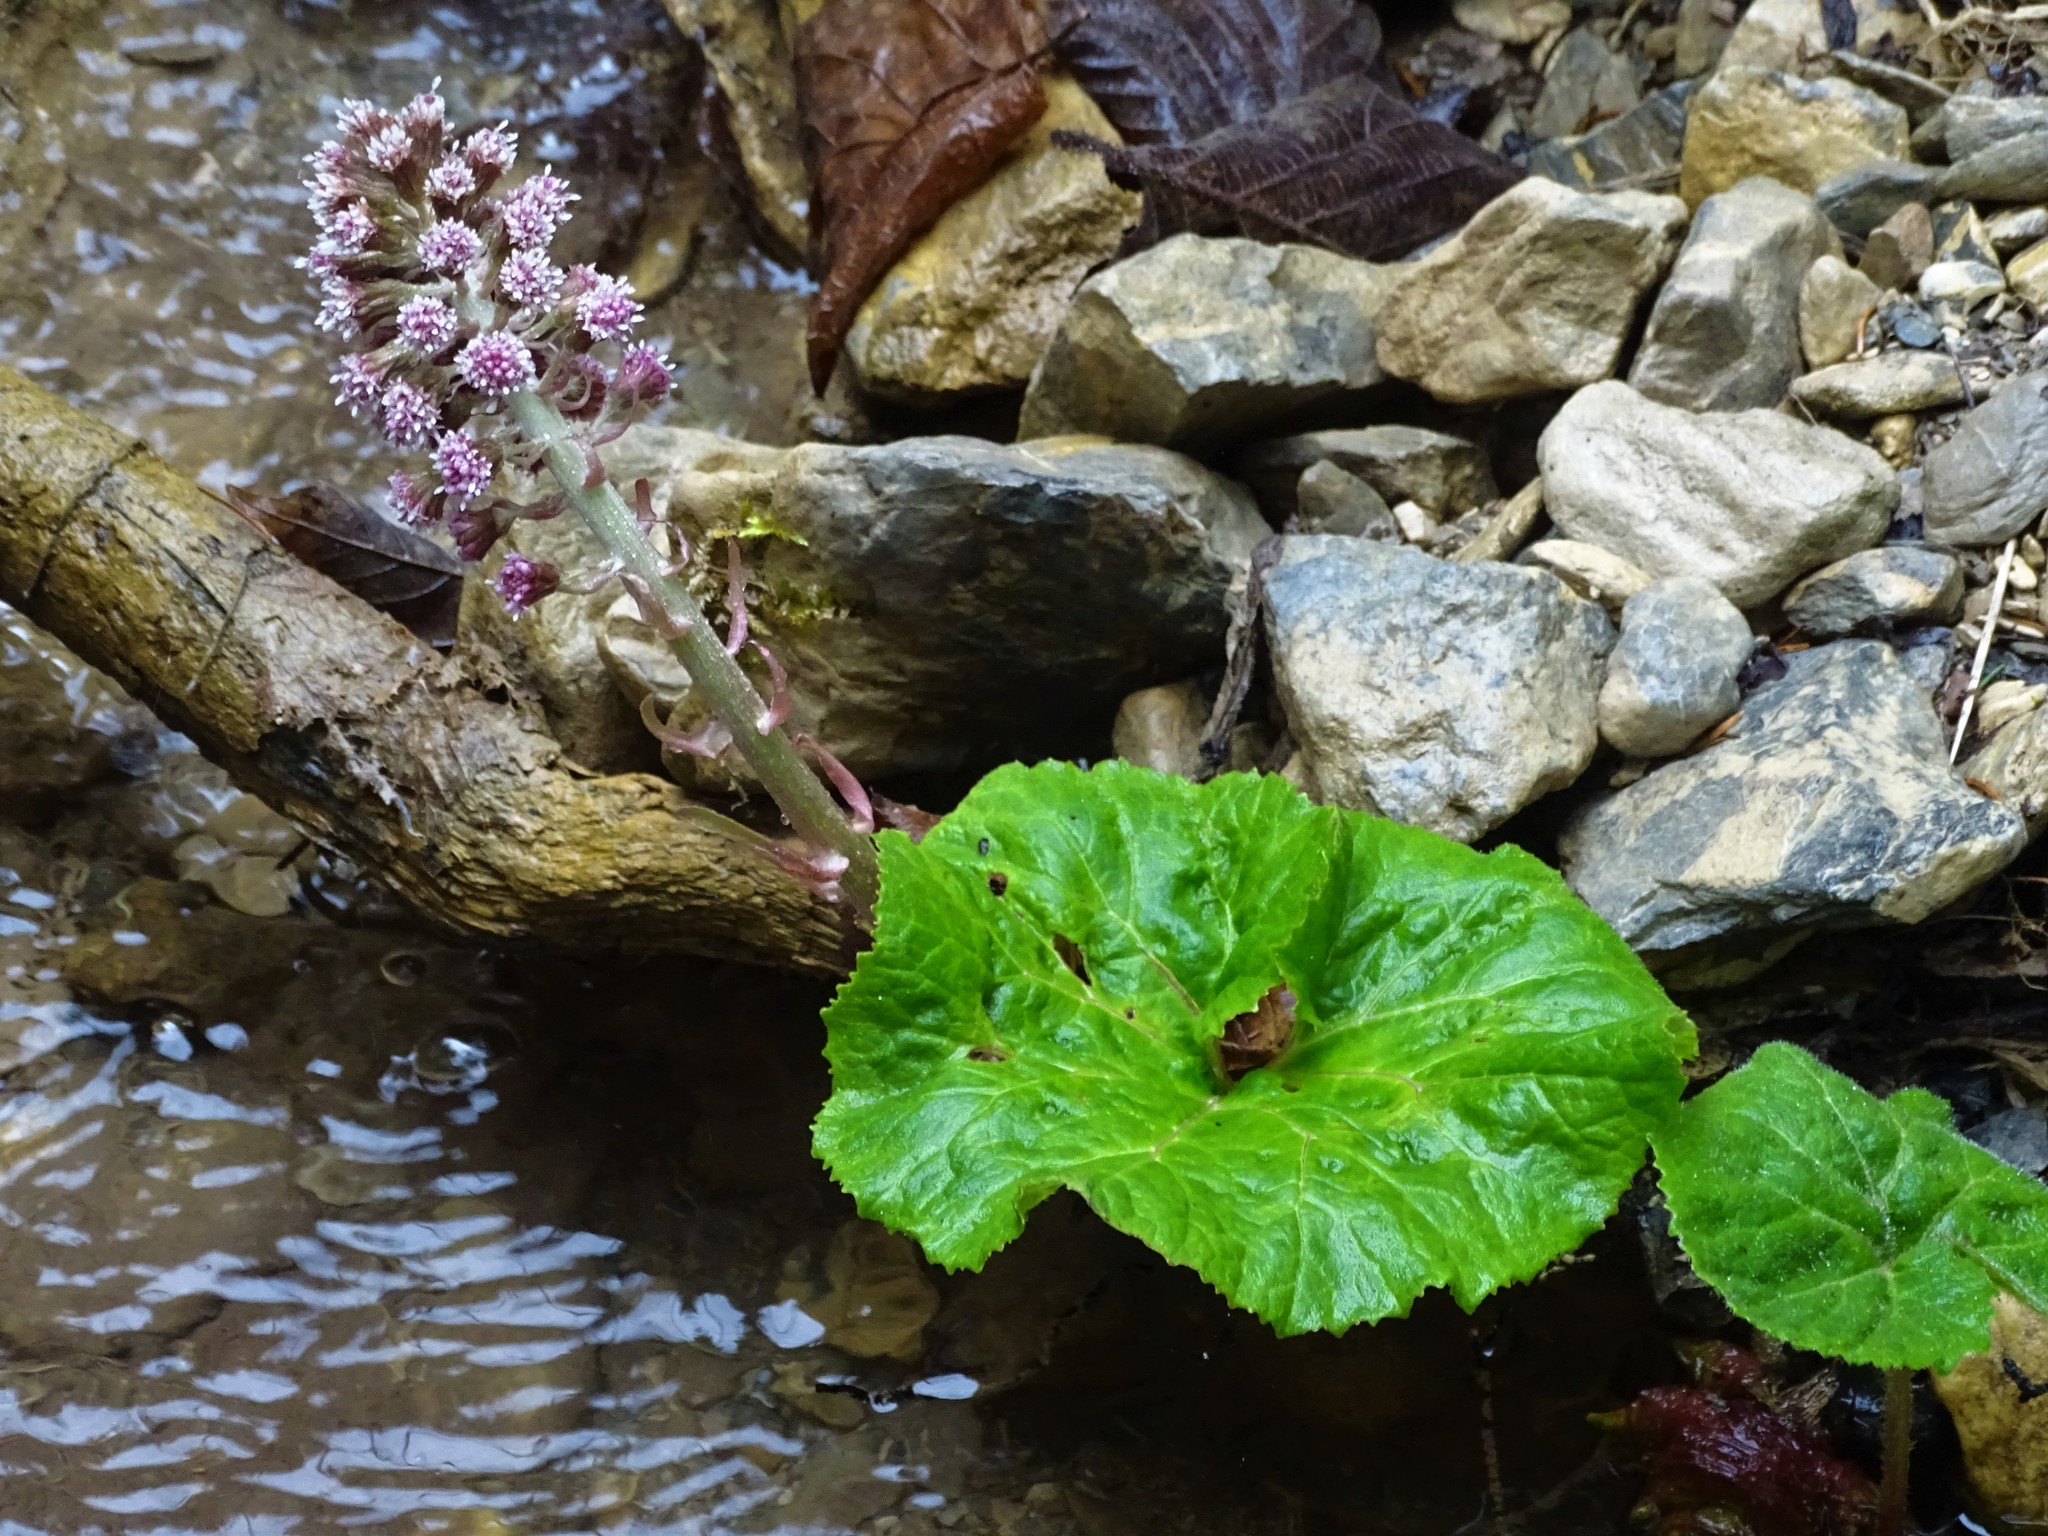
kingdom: Plantae
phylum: Tracheophyta
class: Magnoliopsida
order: Asterales
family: Asteraceae
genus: Petasites
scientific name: Petasites hybridus
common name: Butterbur
